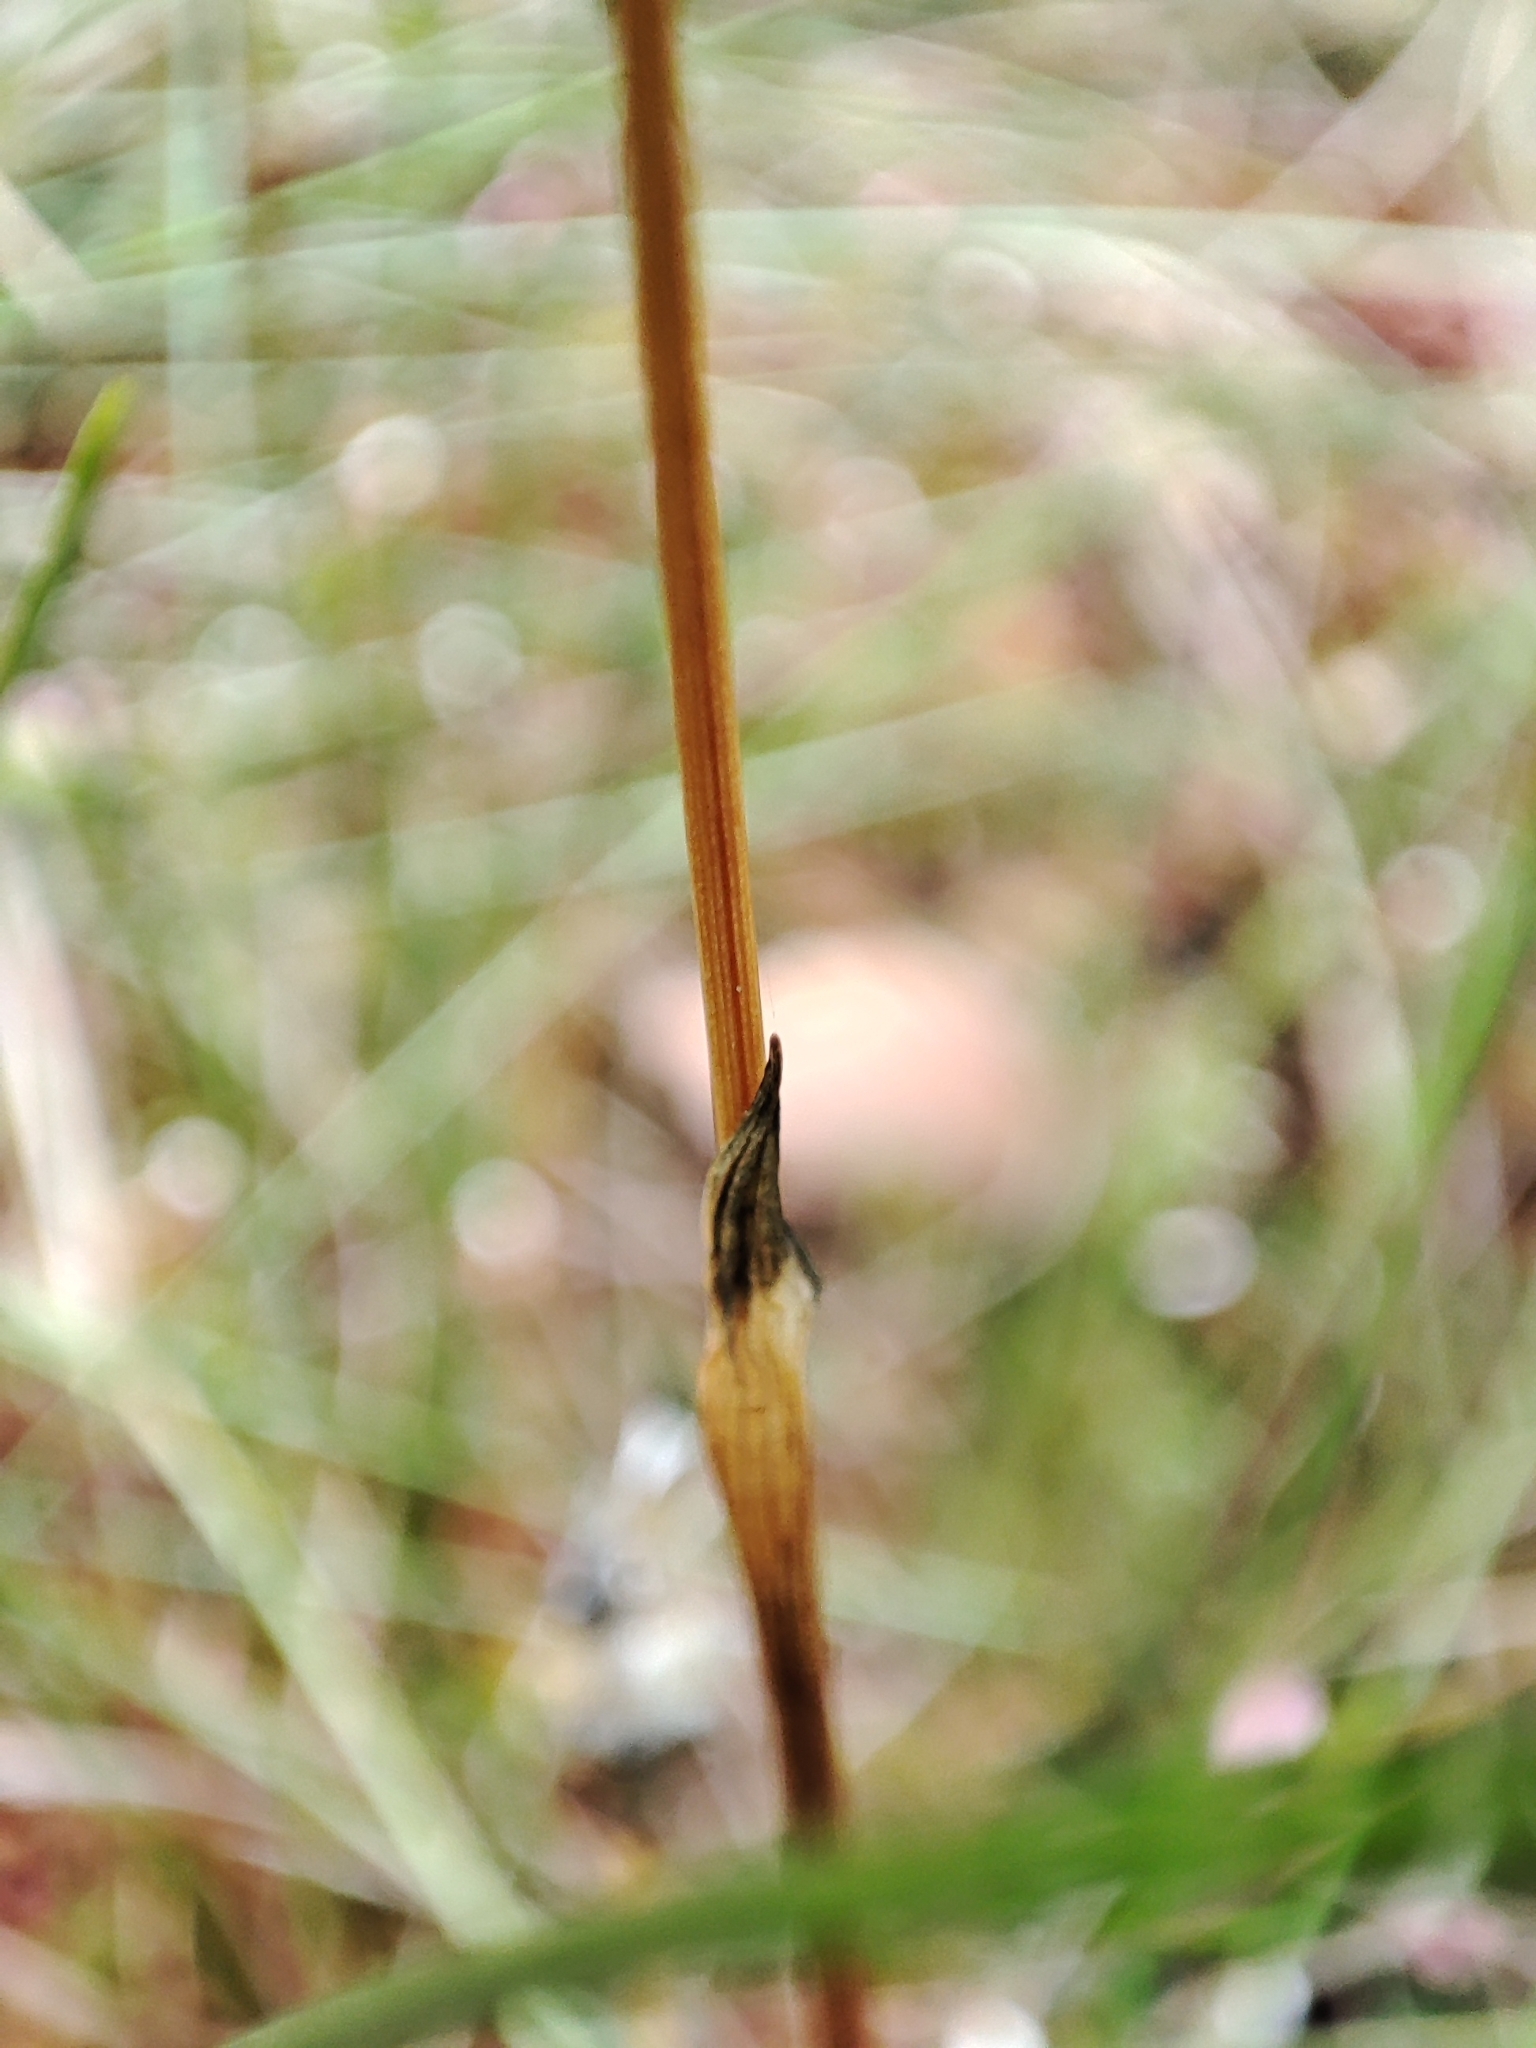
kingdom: Plantae
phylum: Tracheophyta
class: Liliopsida
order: Poales
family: Cyperaceae
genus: Eriophorum
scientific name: Eriophorum vaginatum
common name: Hare's-tail cottongrass
